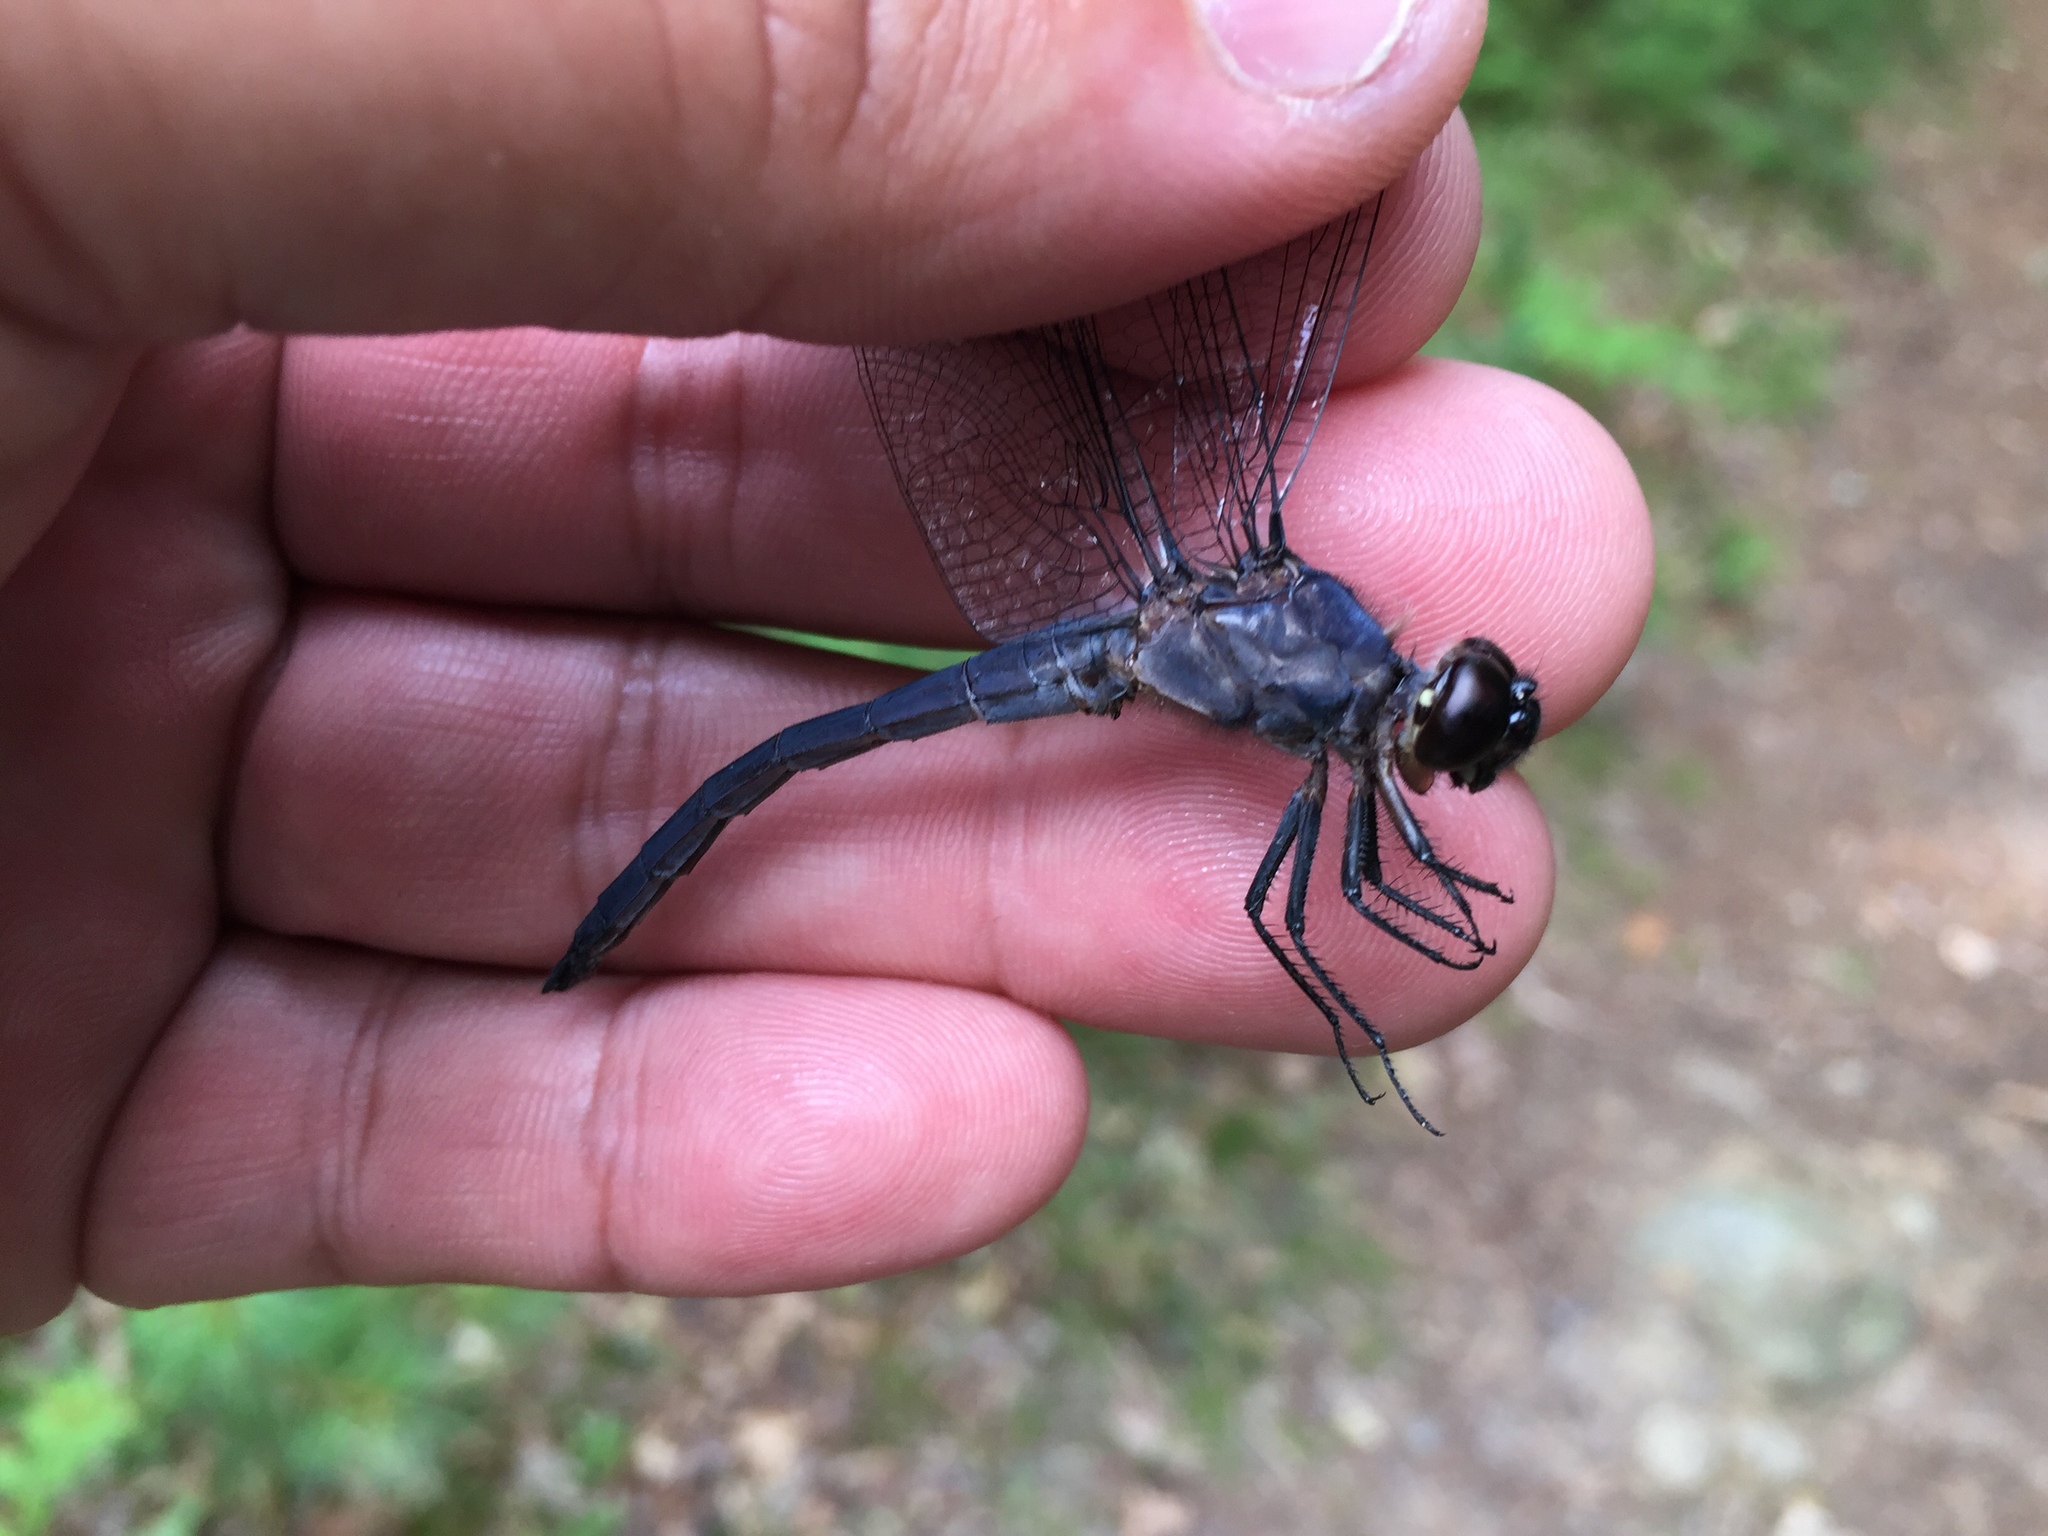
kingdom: Animalia
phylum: Arthropoda
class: Insecta
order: Odonata
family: Libellulidae
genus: Libellula
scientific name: Libellula incesta
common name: Slaty skimmer
